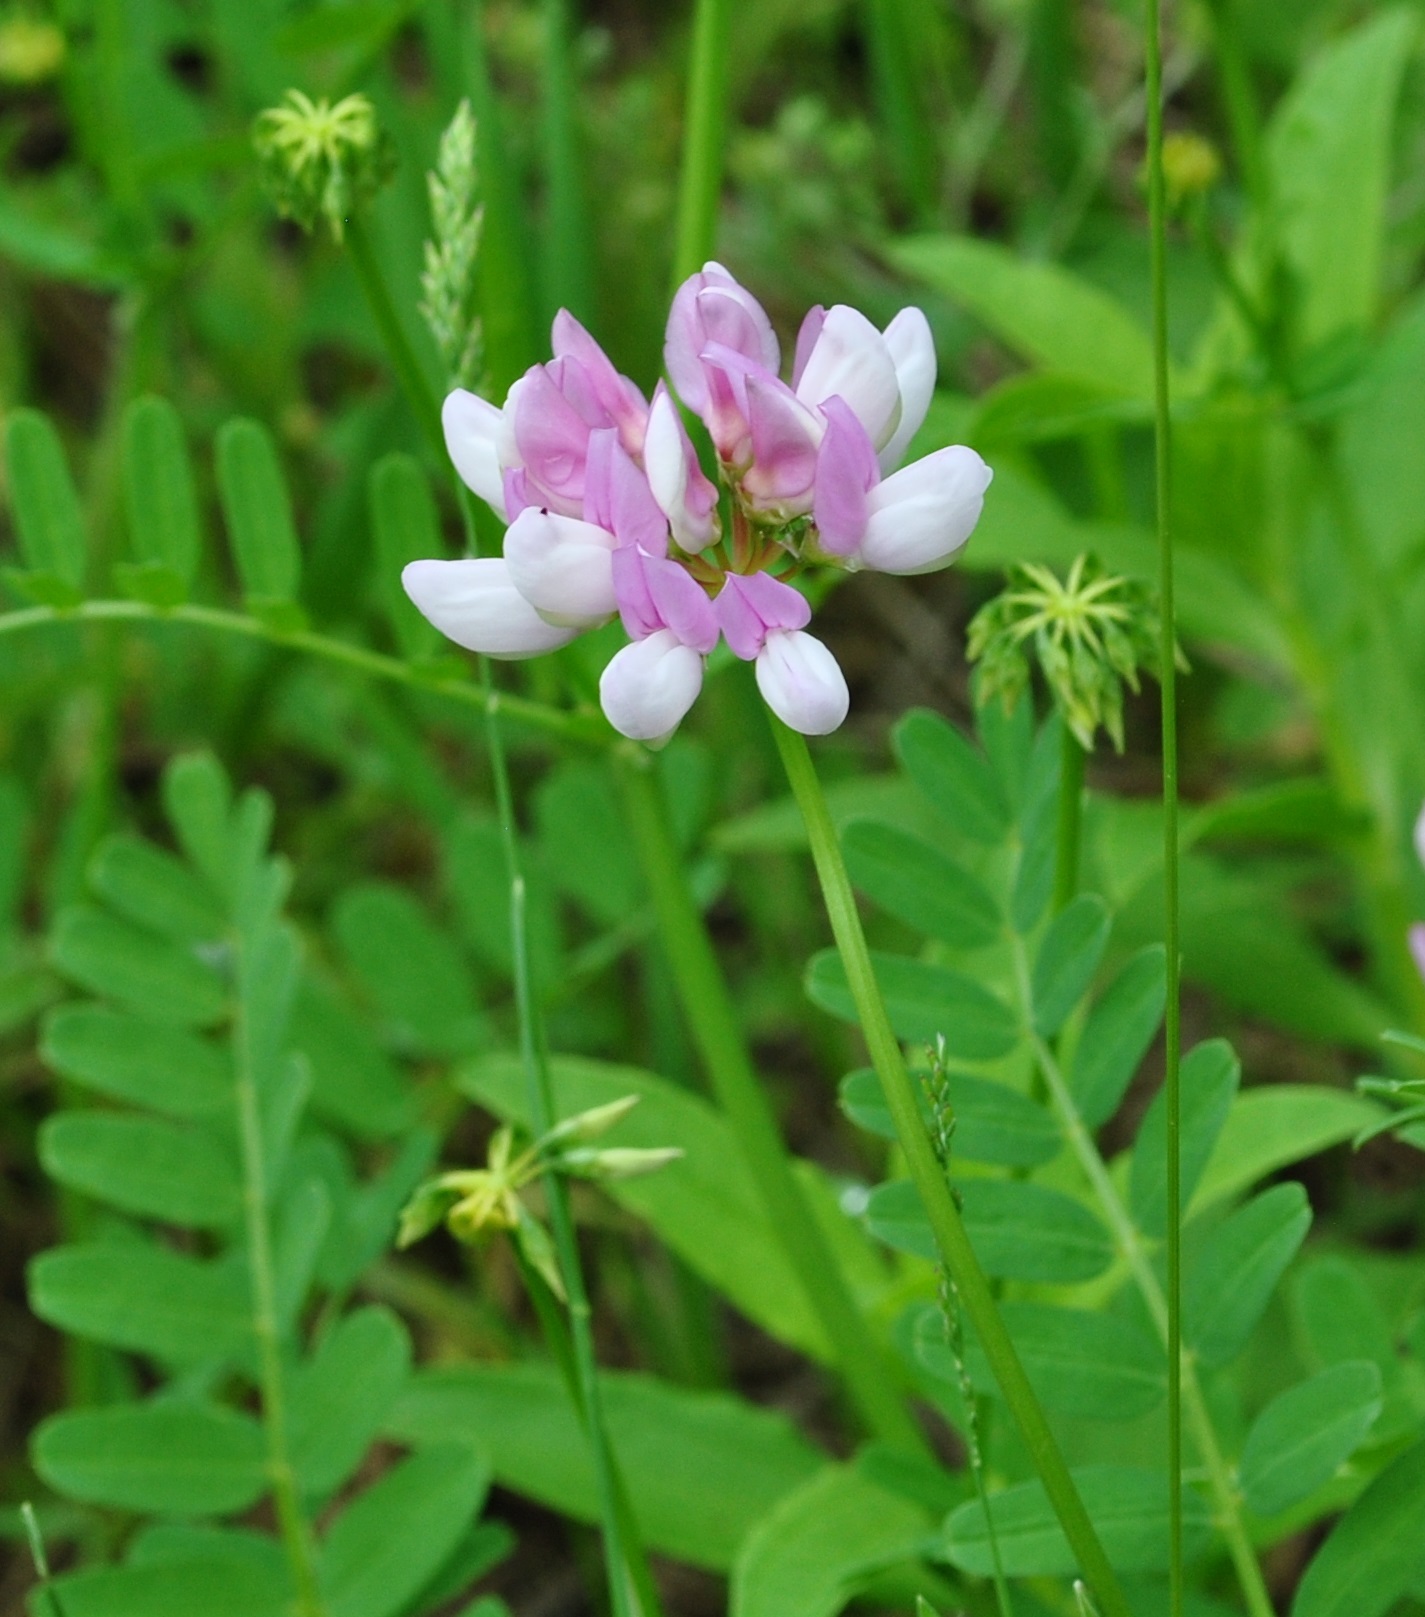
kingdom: Plantae
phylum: Tracheophyta
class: Magnoliopsida
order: Fabales
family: Fabaceae
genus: Coronilla
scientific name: Coronilla varia
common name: Crownvetch
